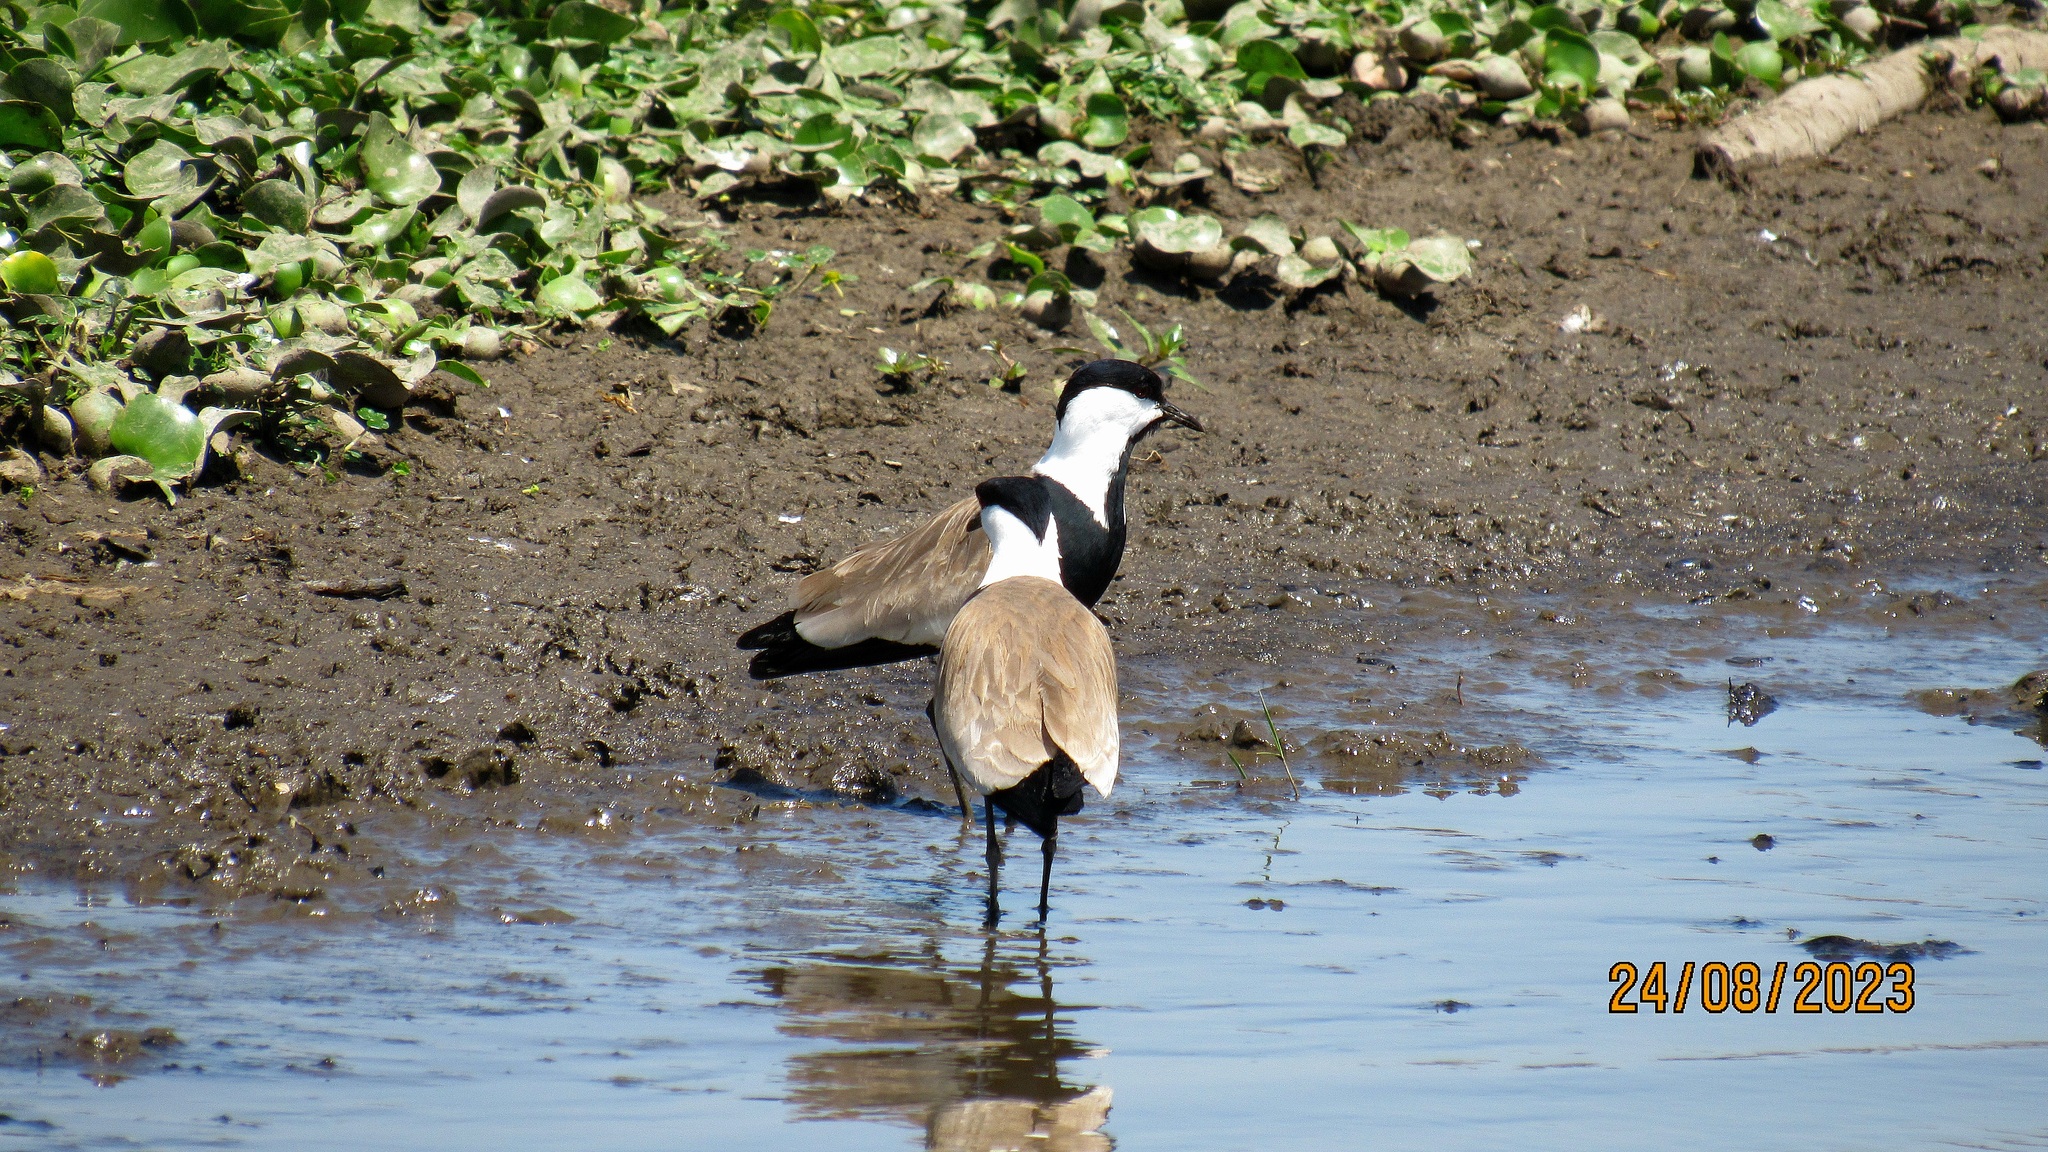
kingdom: Animalia
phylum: Chordata
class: Aves
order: Charadriiformes
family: Charadriidae
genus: Vanellus
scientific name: Vanellus spinosus
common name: Spur-winged lapwing
